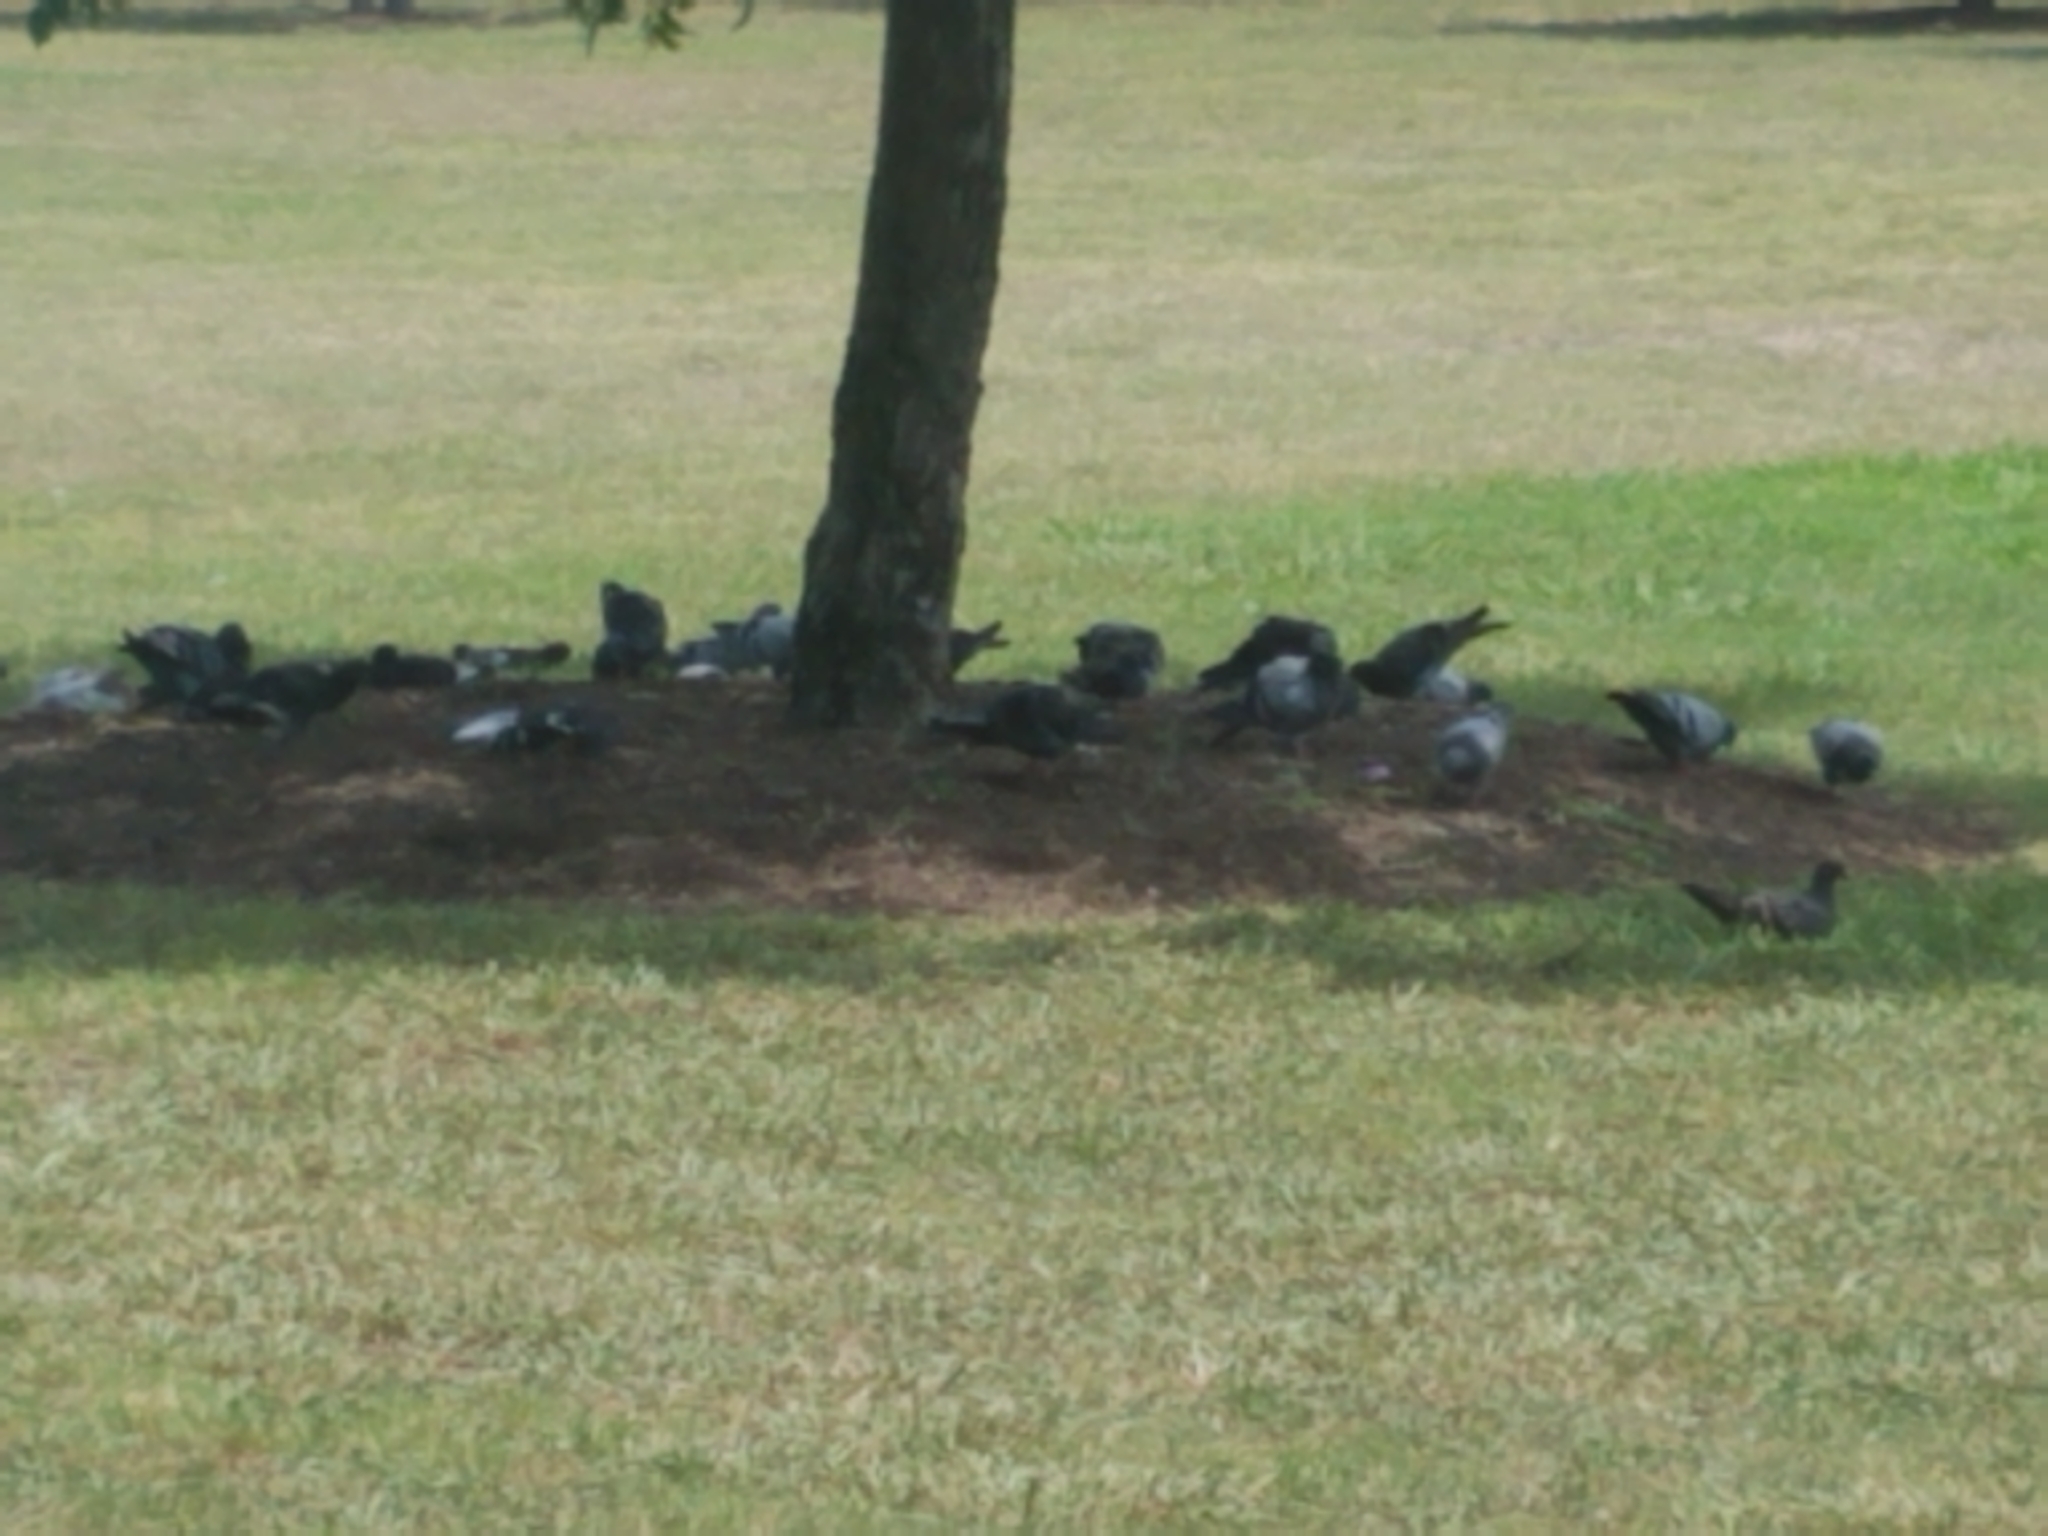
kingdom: Animalia
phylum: Chordata
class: Aves
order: Columbiformes
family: Columbidae
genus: Columba
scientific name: Columba livia
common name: Rock pigeon
